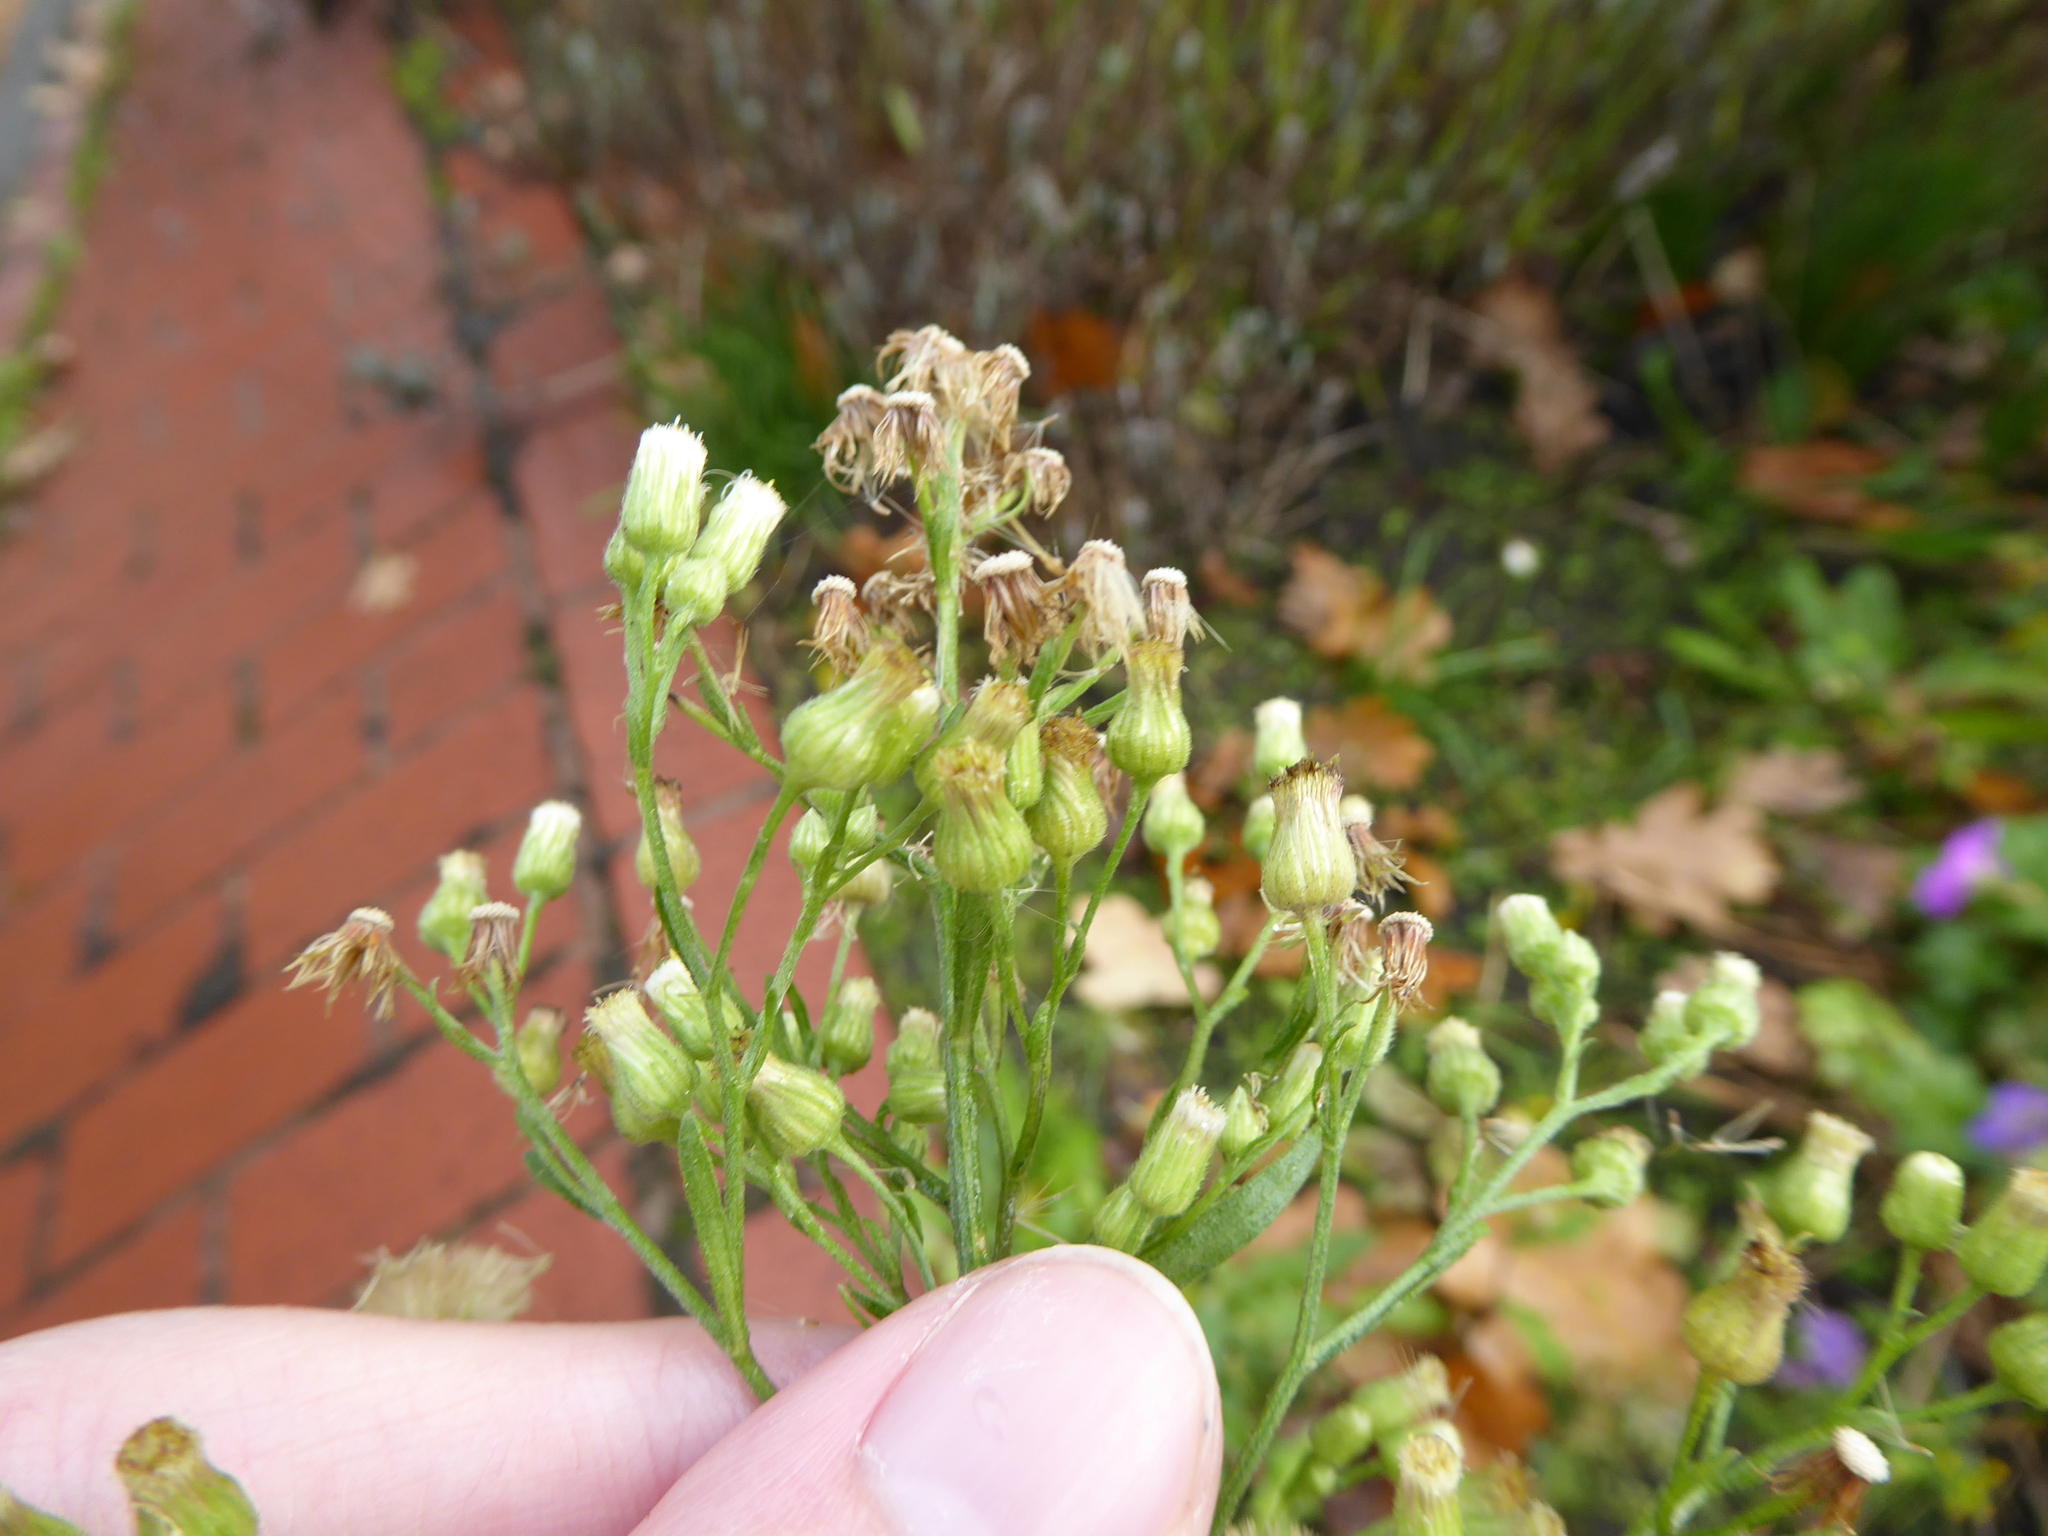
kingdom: Plantae
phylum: Tracheophyta
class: Magnoliopsida
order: Asterales
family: Asteraceae
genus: Erigeron
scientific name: Erigeron sumatrensis
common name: Daisy
